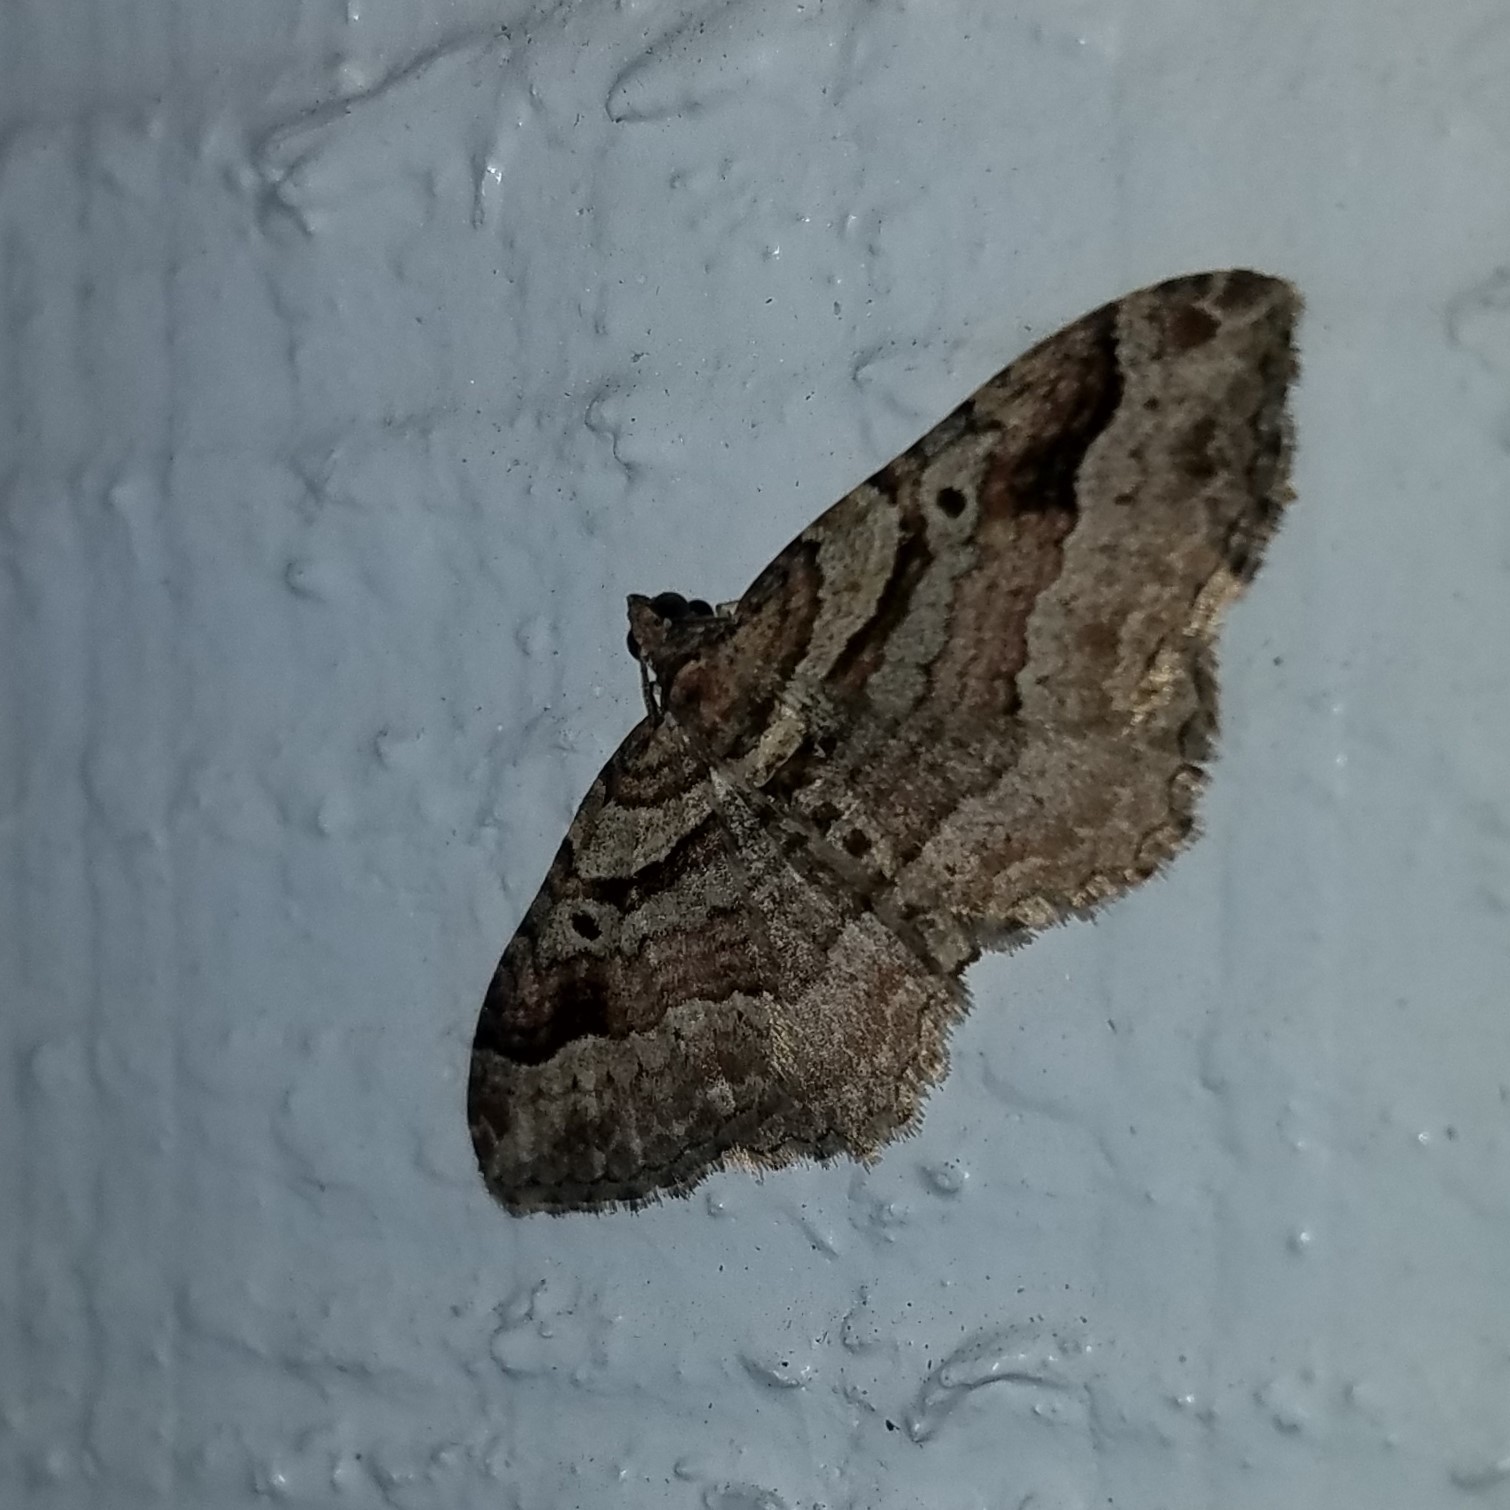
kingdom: Animalia
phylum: Arthropoda
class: Insecta
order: Lepidoptera
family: Geometridae
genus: Costaconvexa
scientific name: Costaconvexa centrostrigaria
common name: Bent-line carpet
